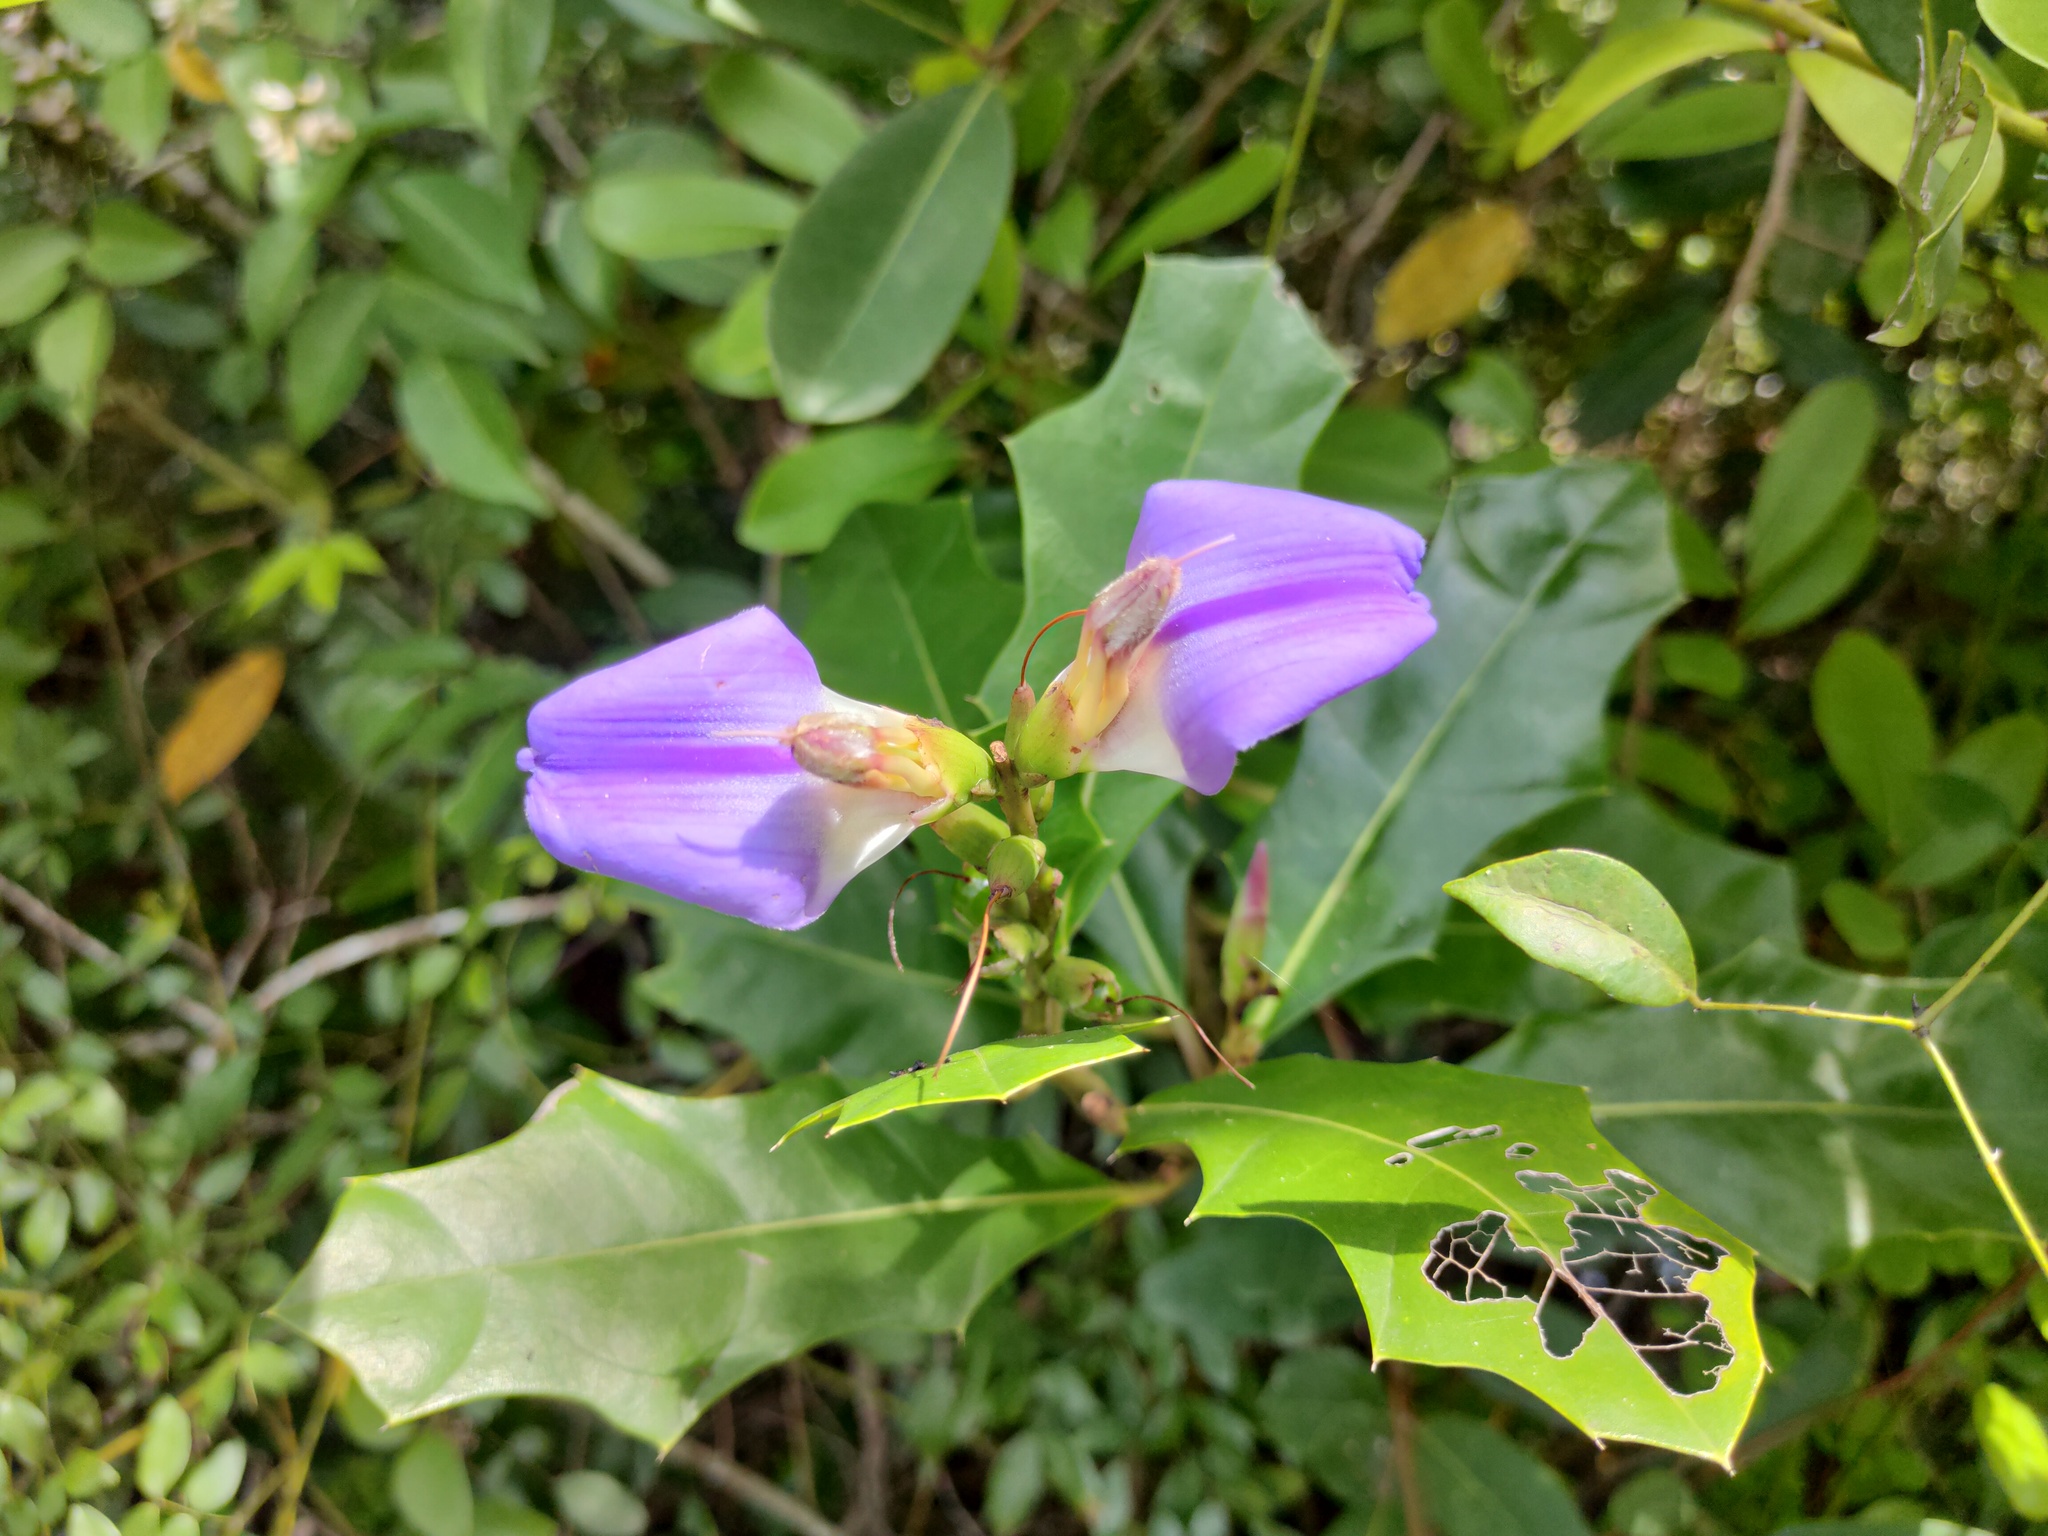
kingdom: Plantae
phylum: Tracheophyta
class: Magnoliopsida
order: Lamiales
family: Acanthaceae
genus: Acanthus
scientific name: Acanthus ilicifolius
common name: Holy mangrove
